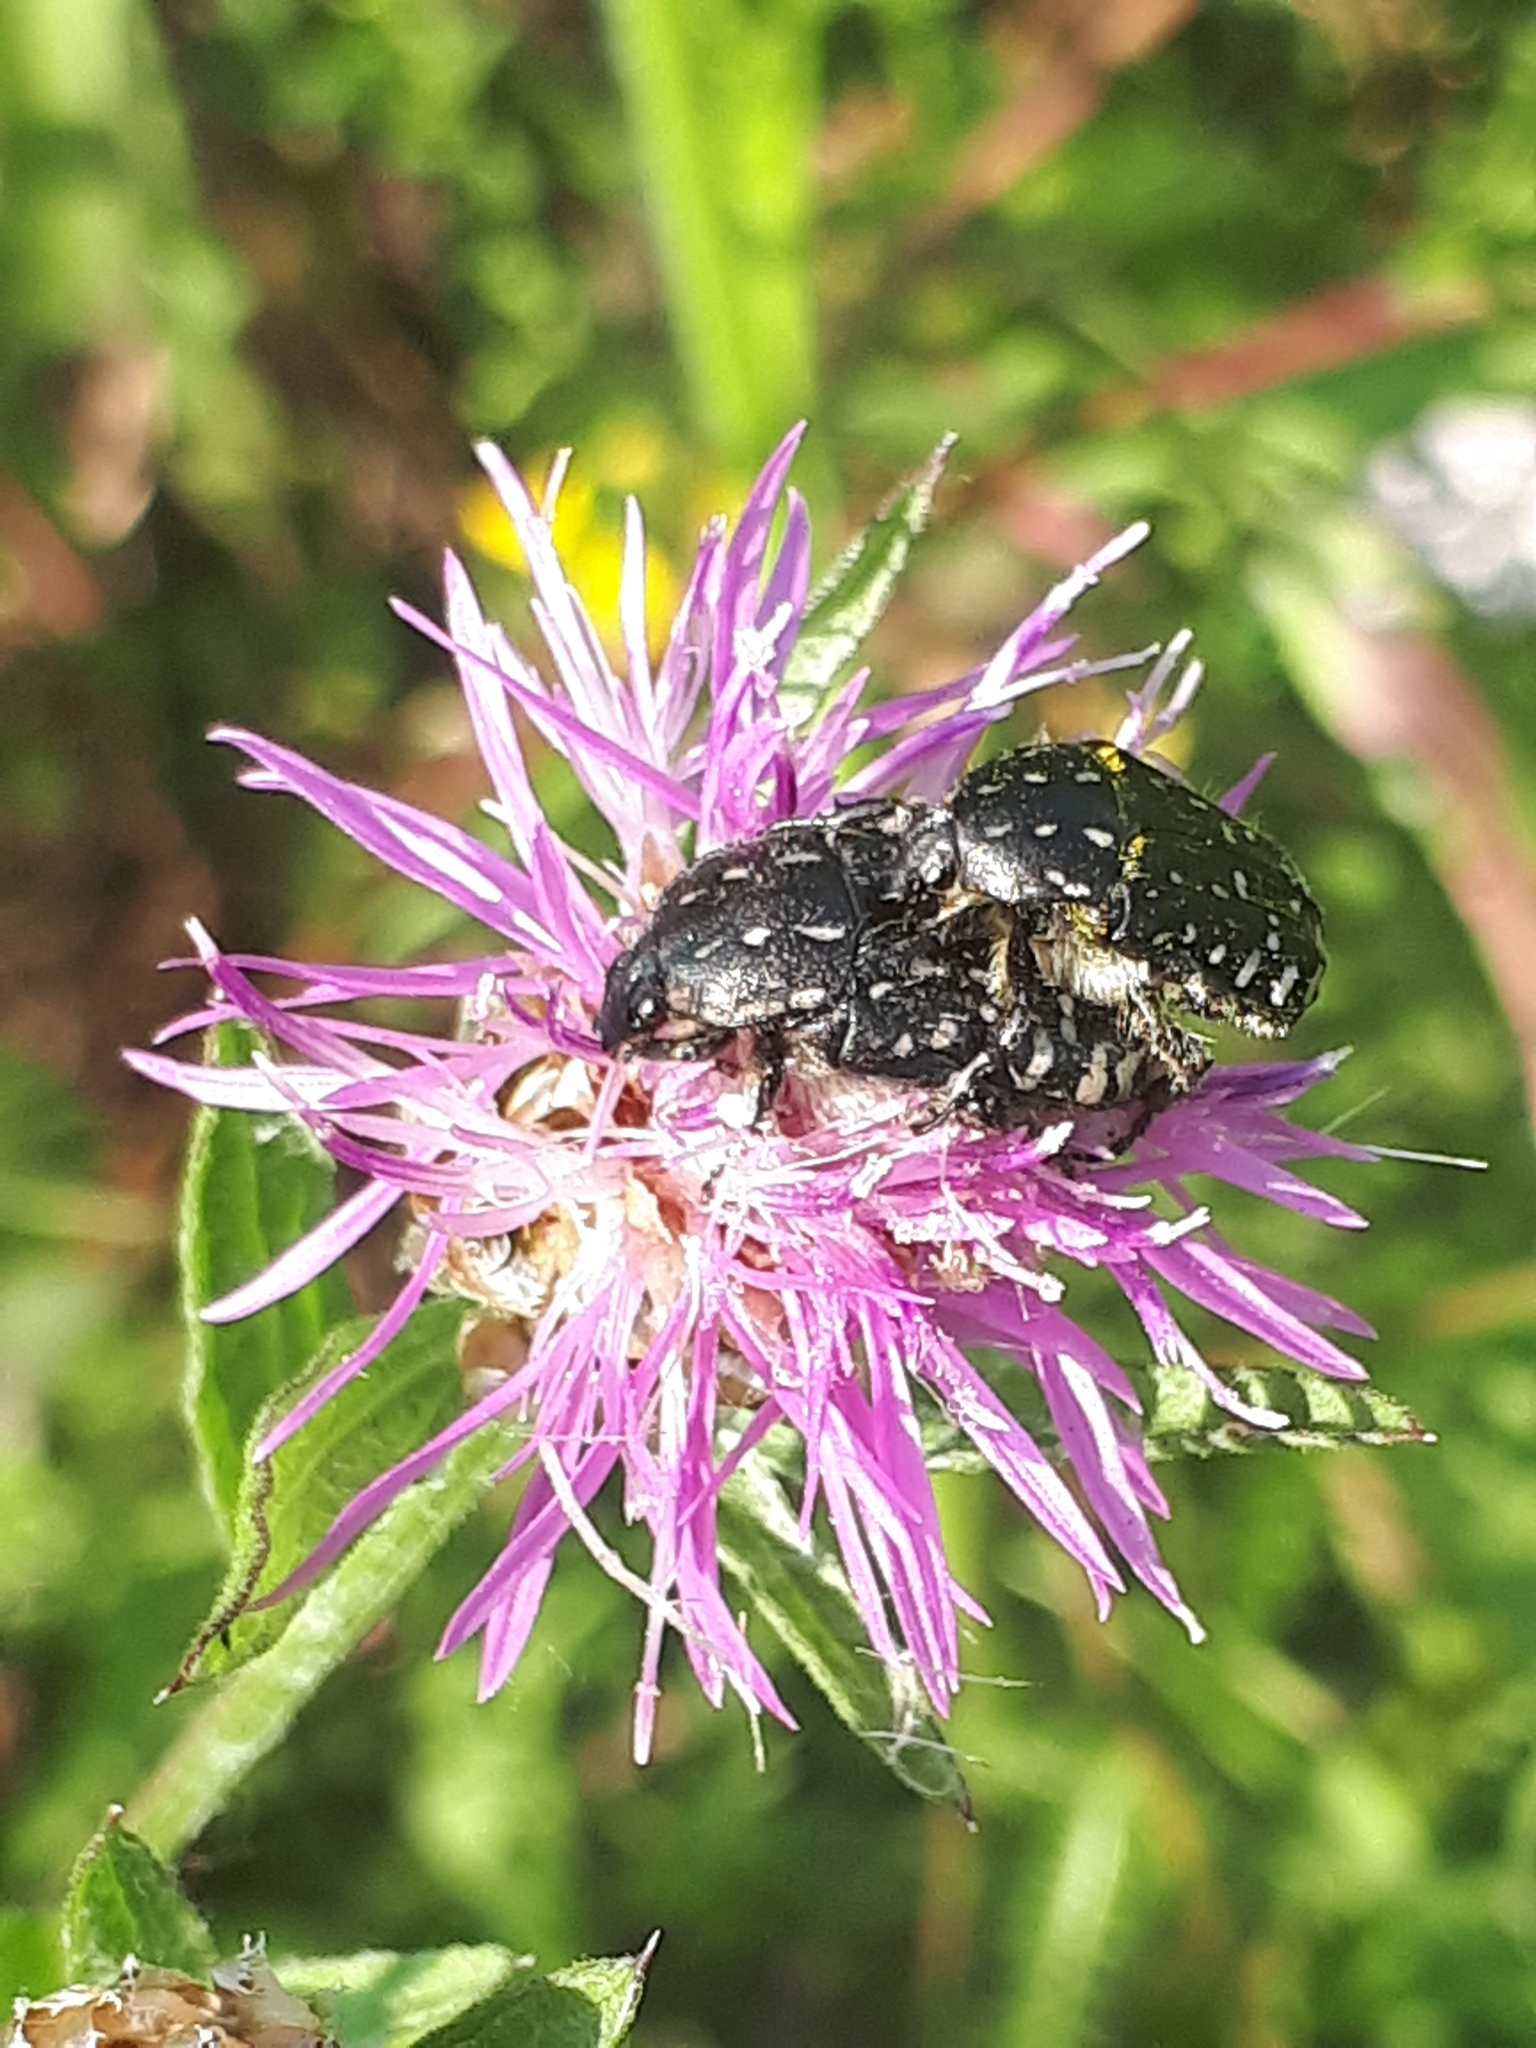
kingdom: Animalia
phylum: Arthropoda
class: Insecta
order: Coleoptera
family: Scarabaeidae
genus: Oxythyrea
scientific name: Oxythyrea funesta
